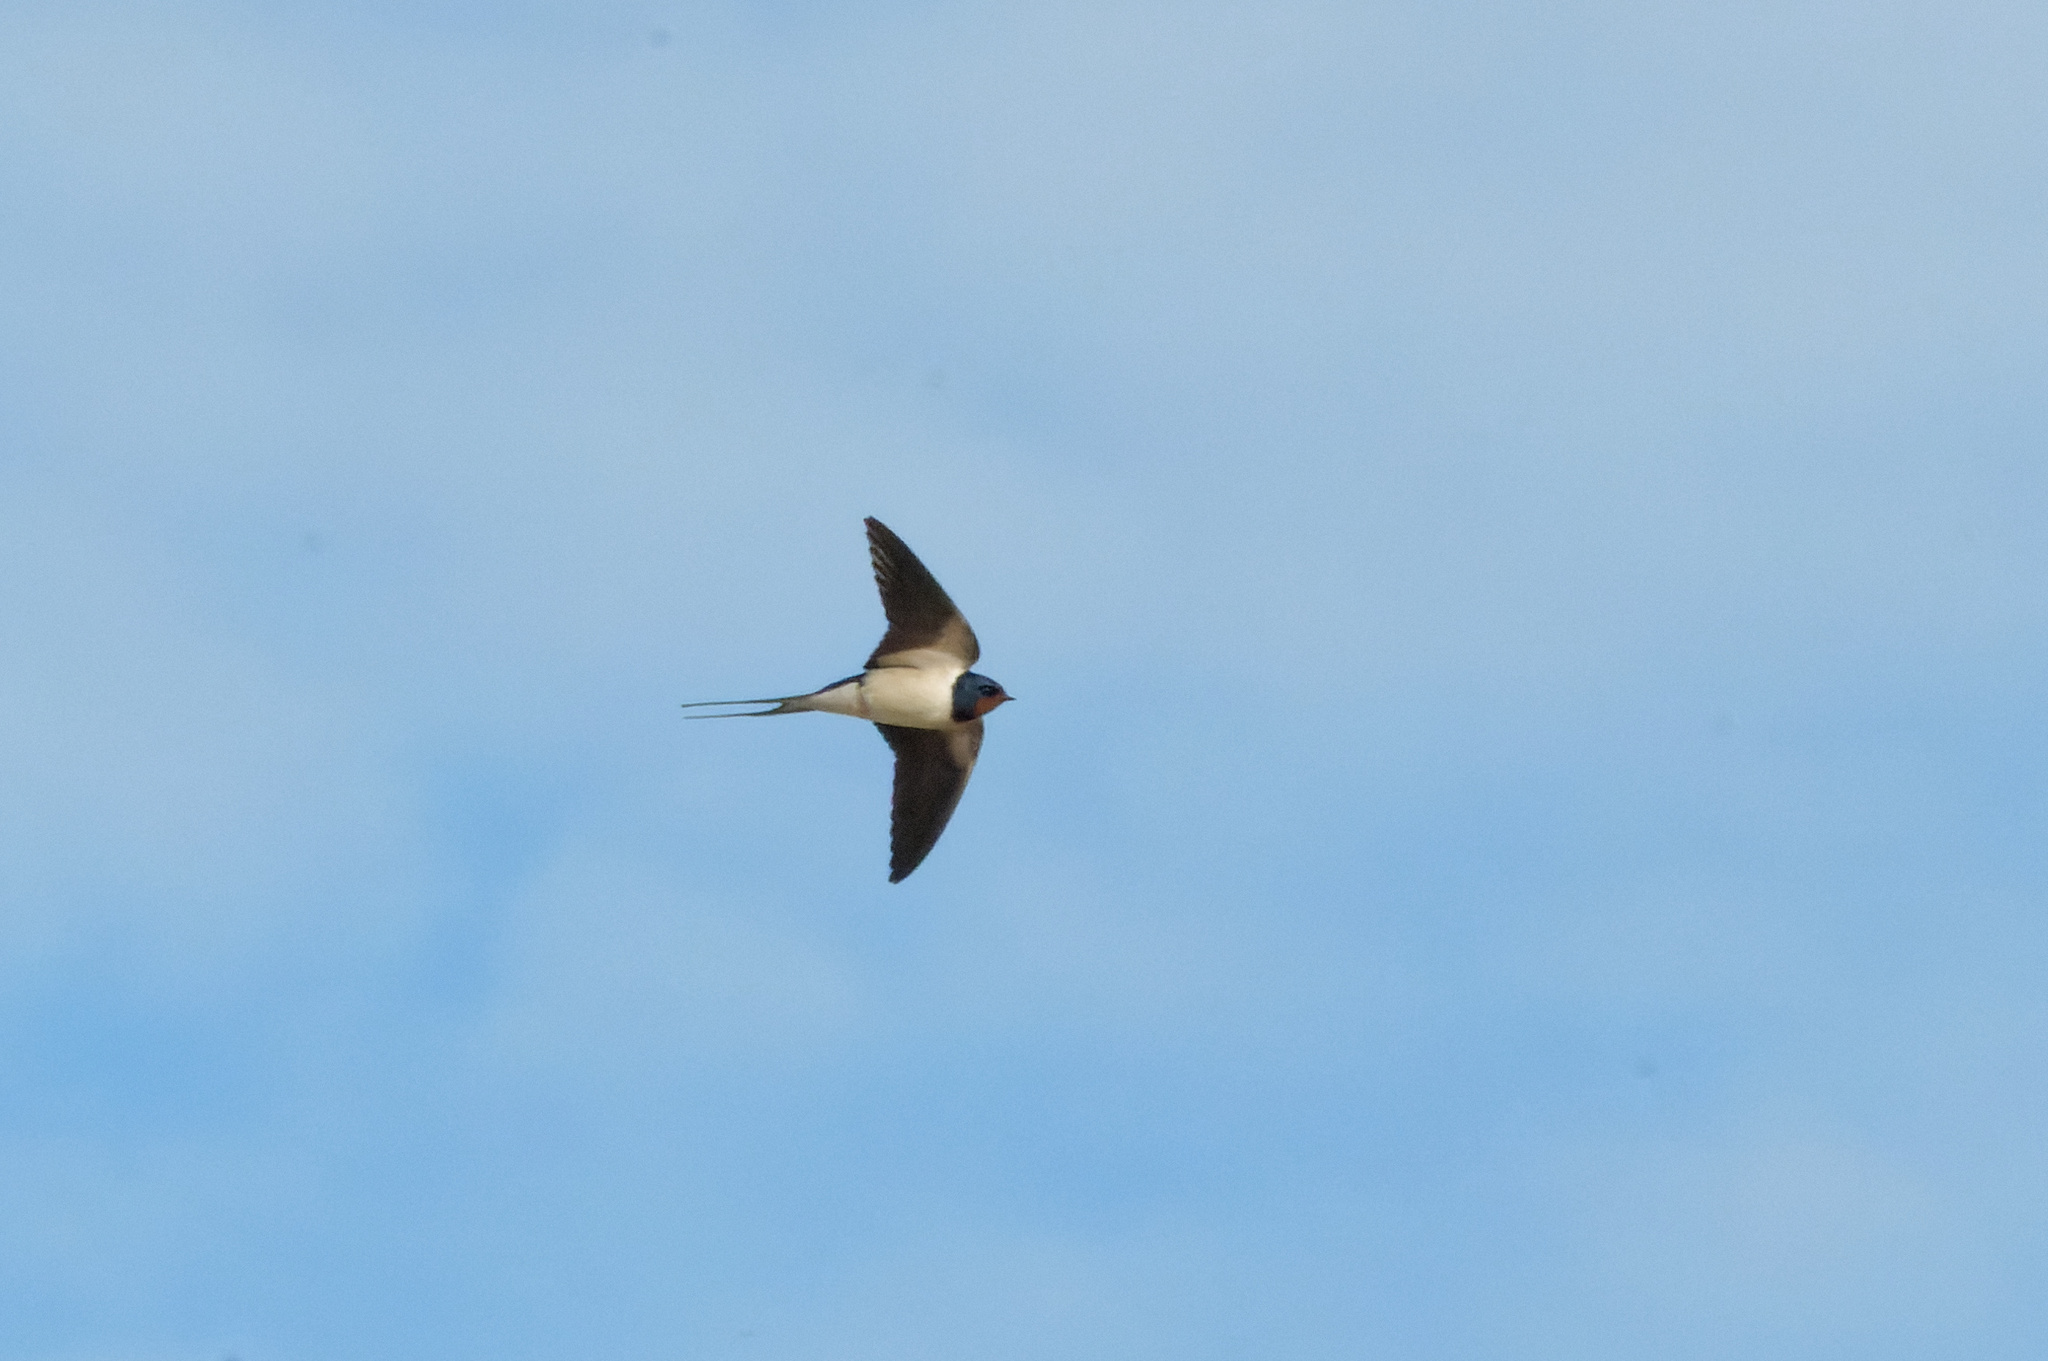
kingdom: Animalia
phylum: Chordata
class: Aves
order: Passeriformes
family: Hirundinidae
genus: Hirundo
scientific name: Hirundo rustica
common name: Barn swallow
